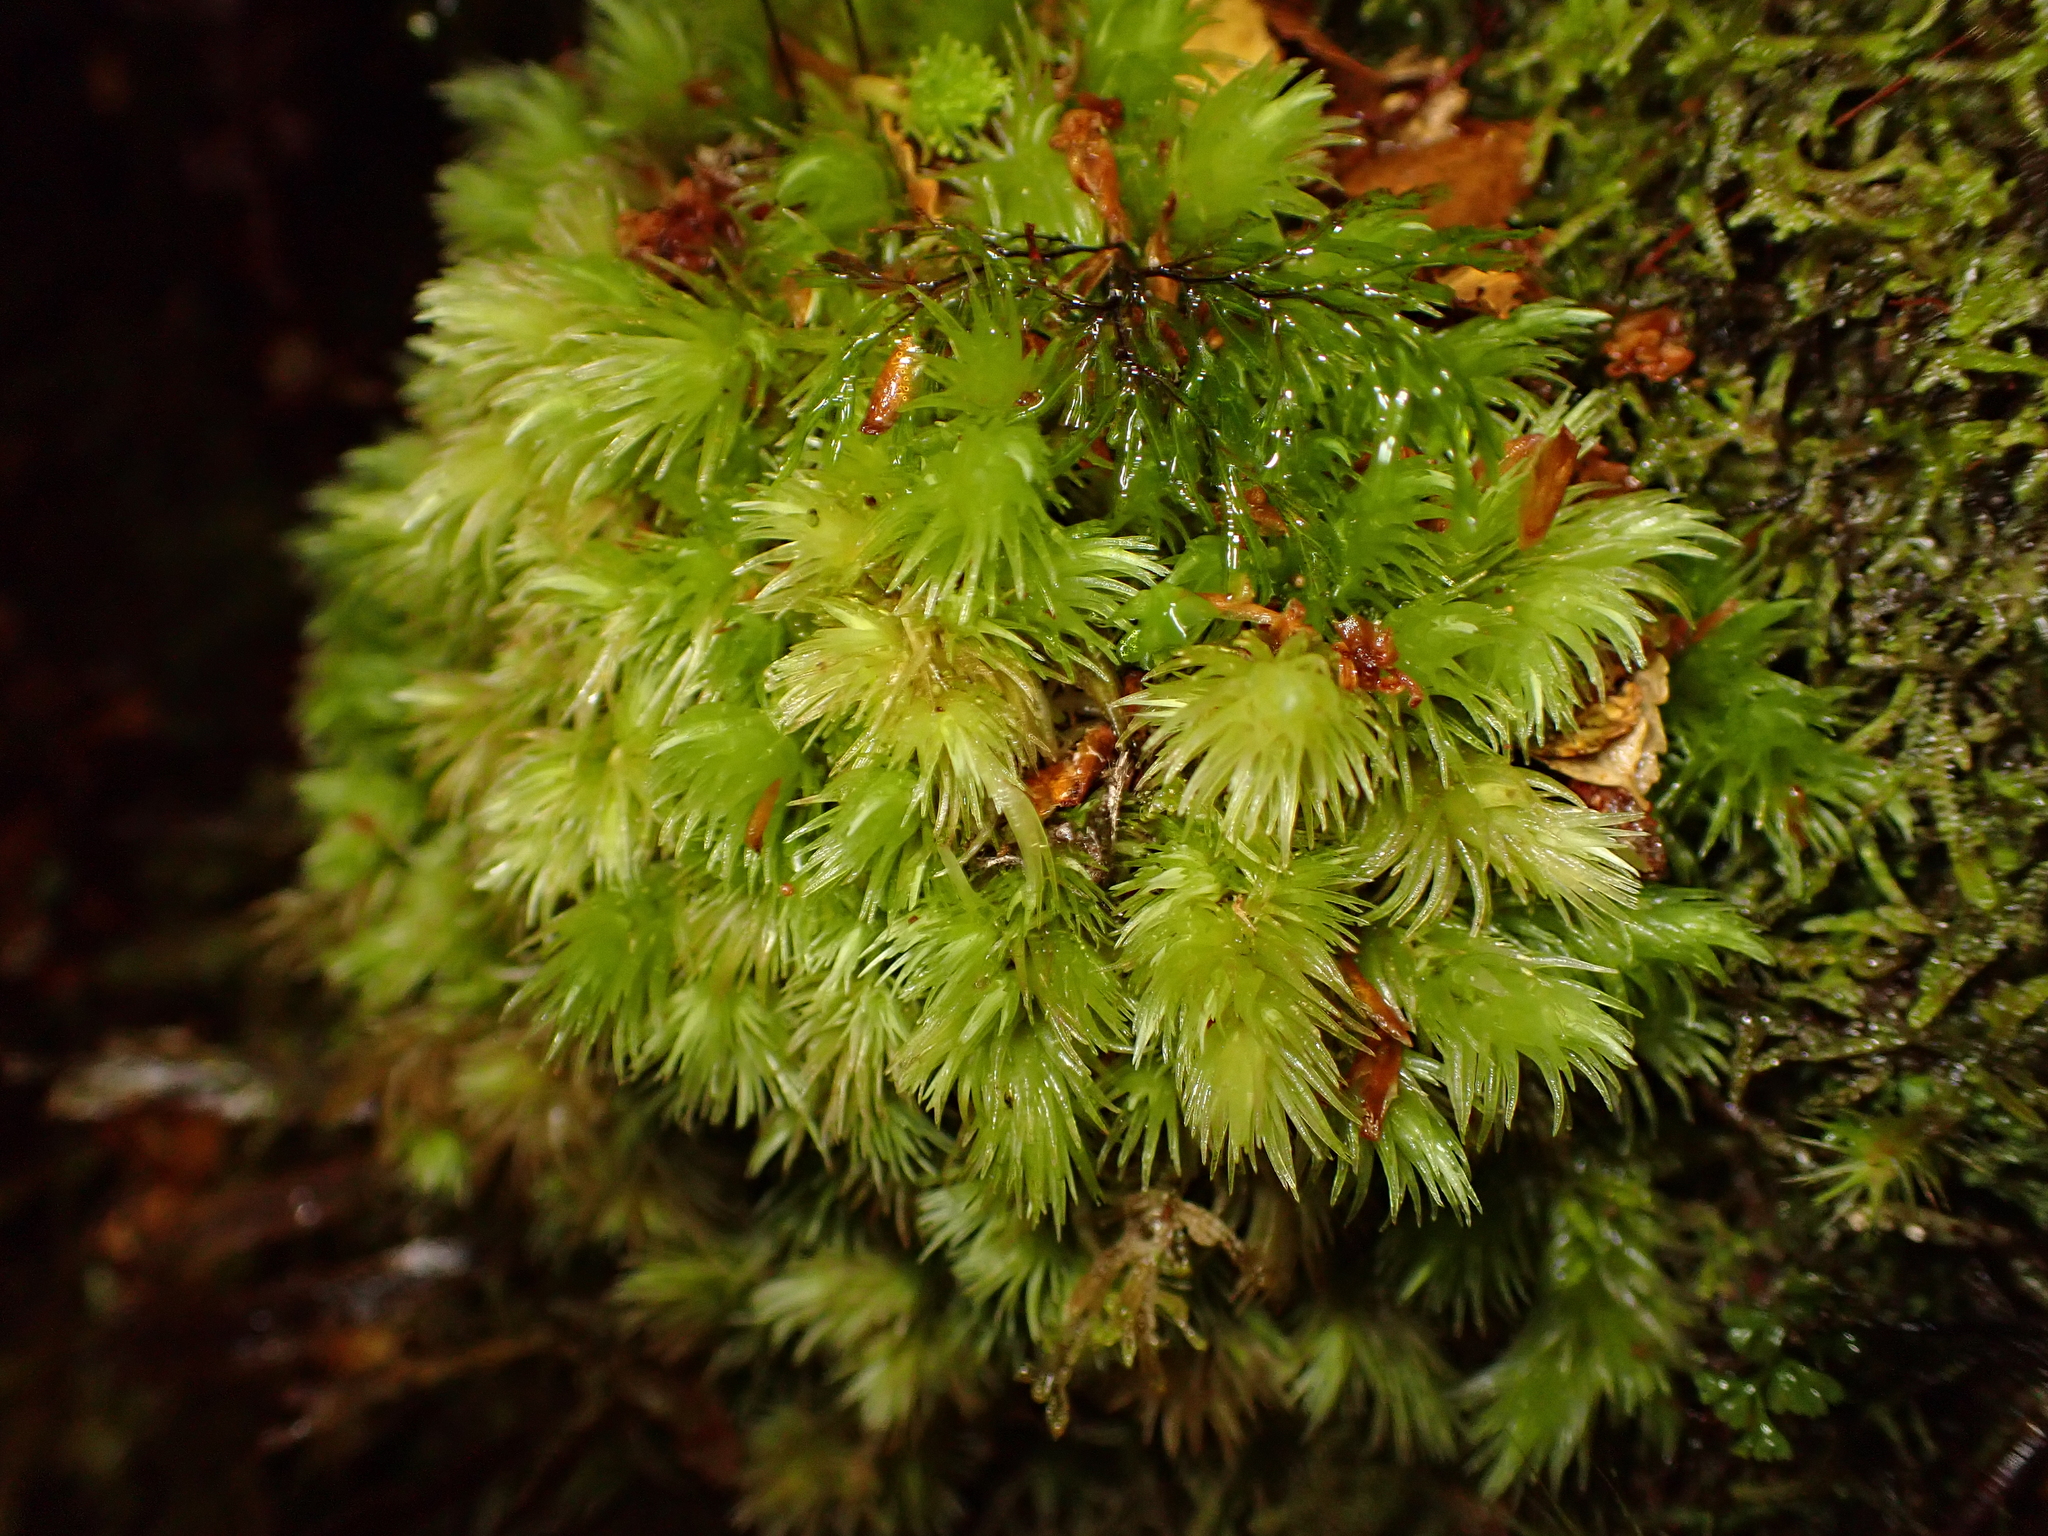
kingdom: Plantae
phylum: Bryophyta
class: Bryopsida
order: Dicranales
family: Leucobryaceae
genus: Leucobryum
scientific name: Leucobryum javense
